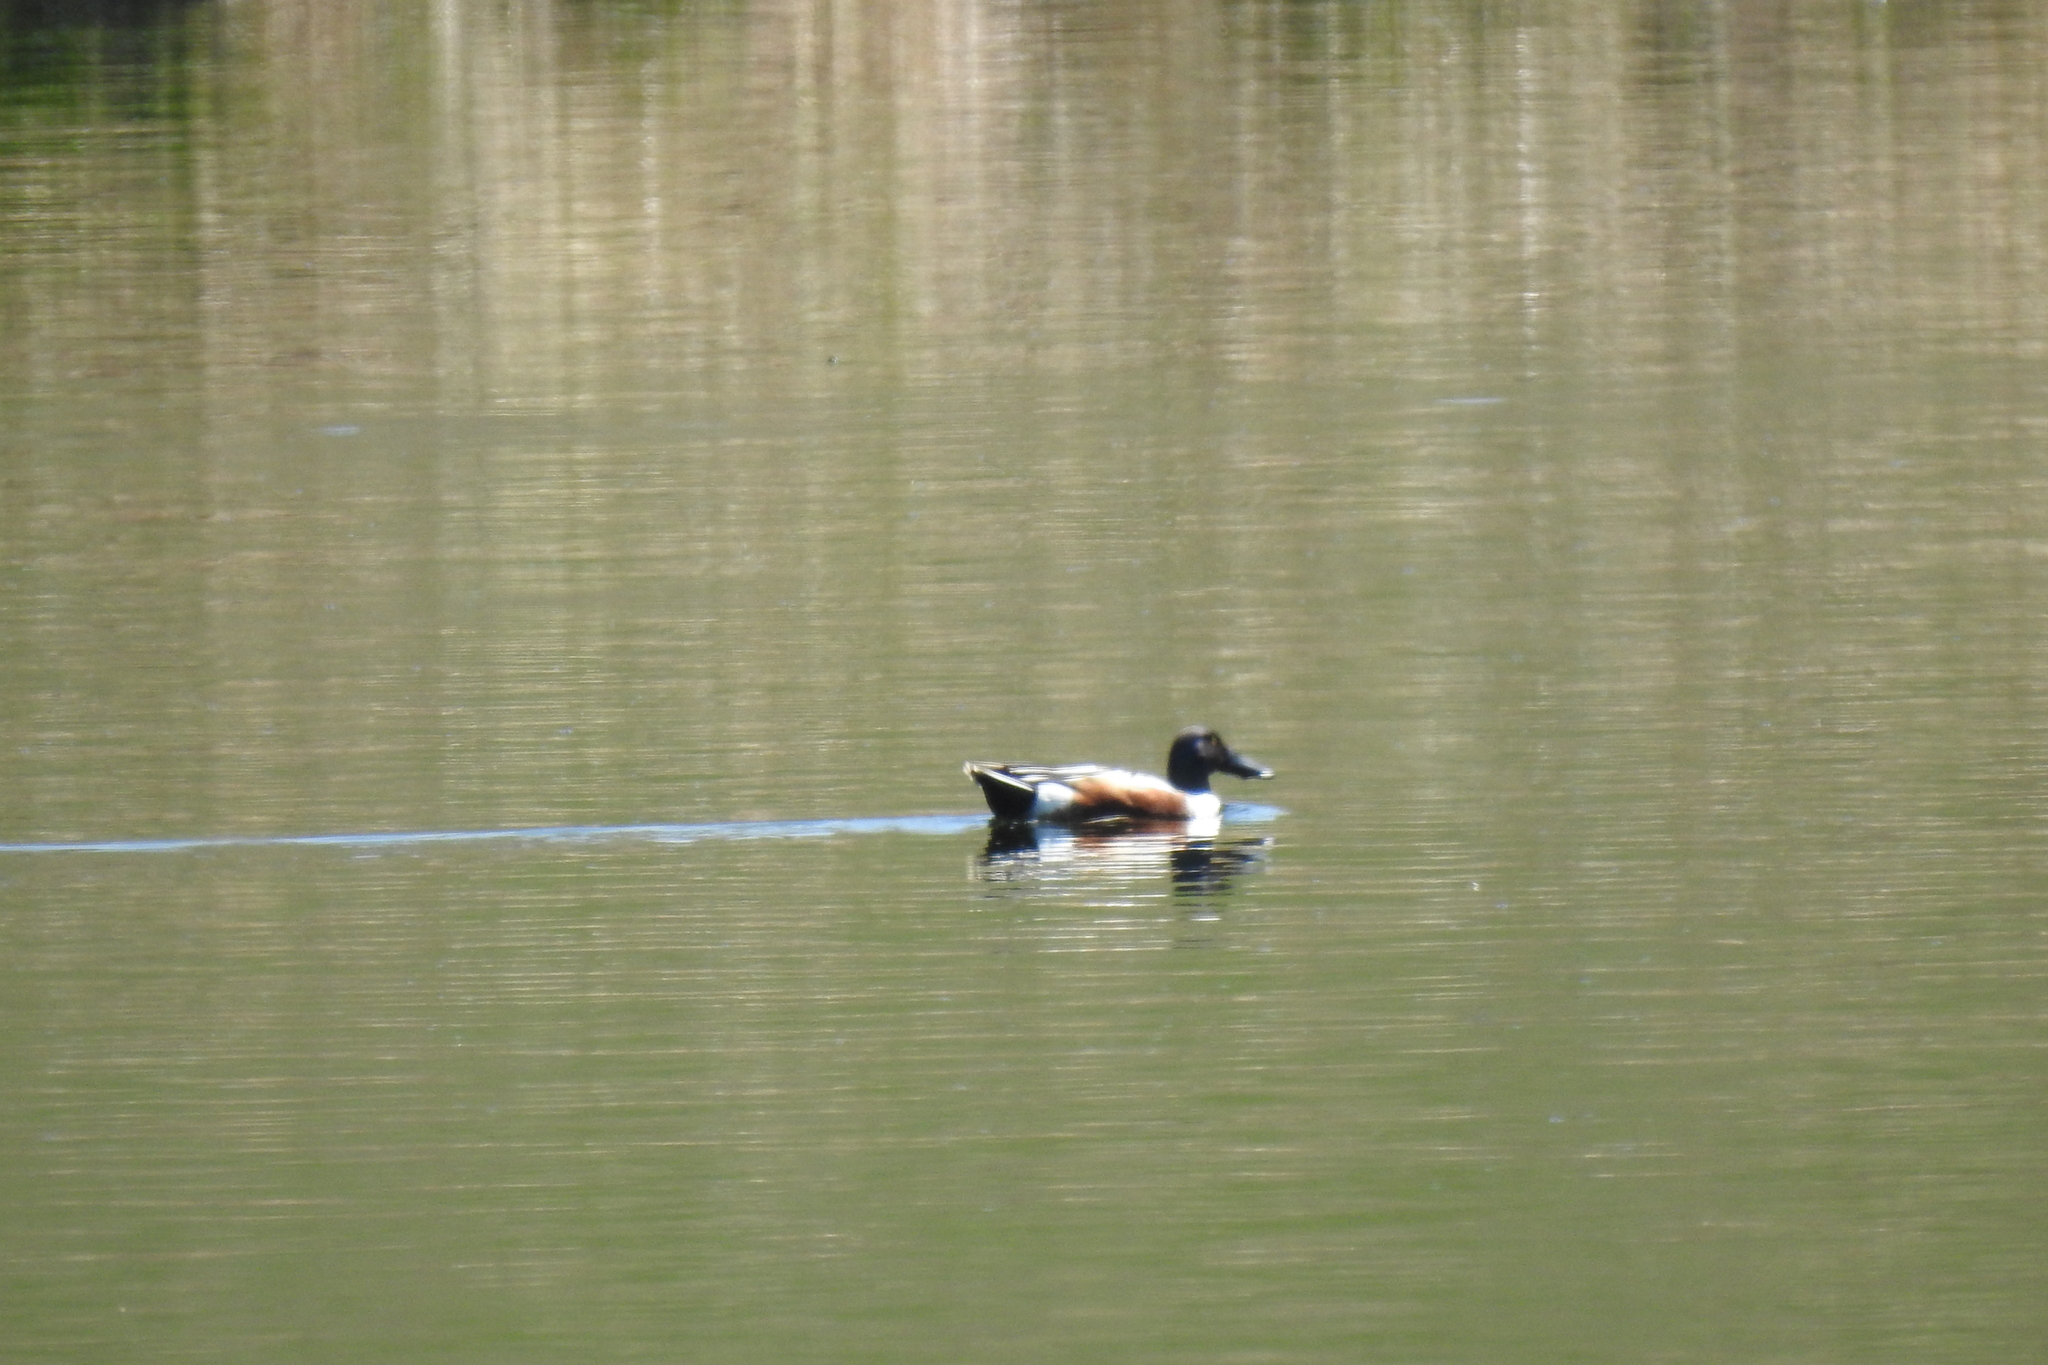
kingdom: Animalia
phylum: Chordata
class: Aves
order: Anseriformes
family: Anatidae
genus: Spatula
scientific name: Spatula clypeata
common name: Northern shoveler
